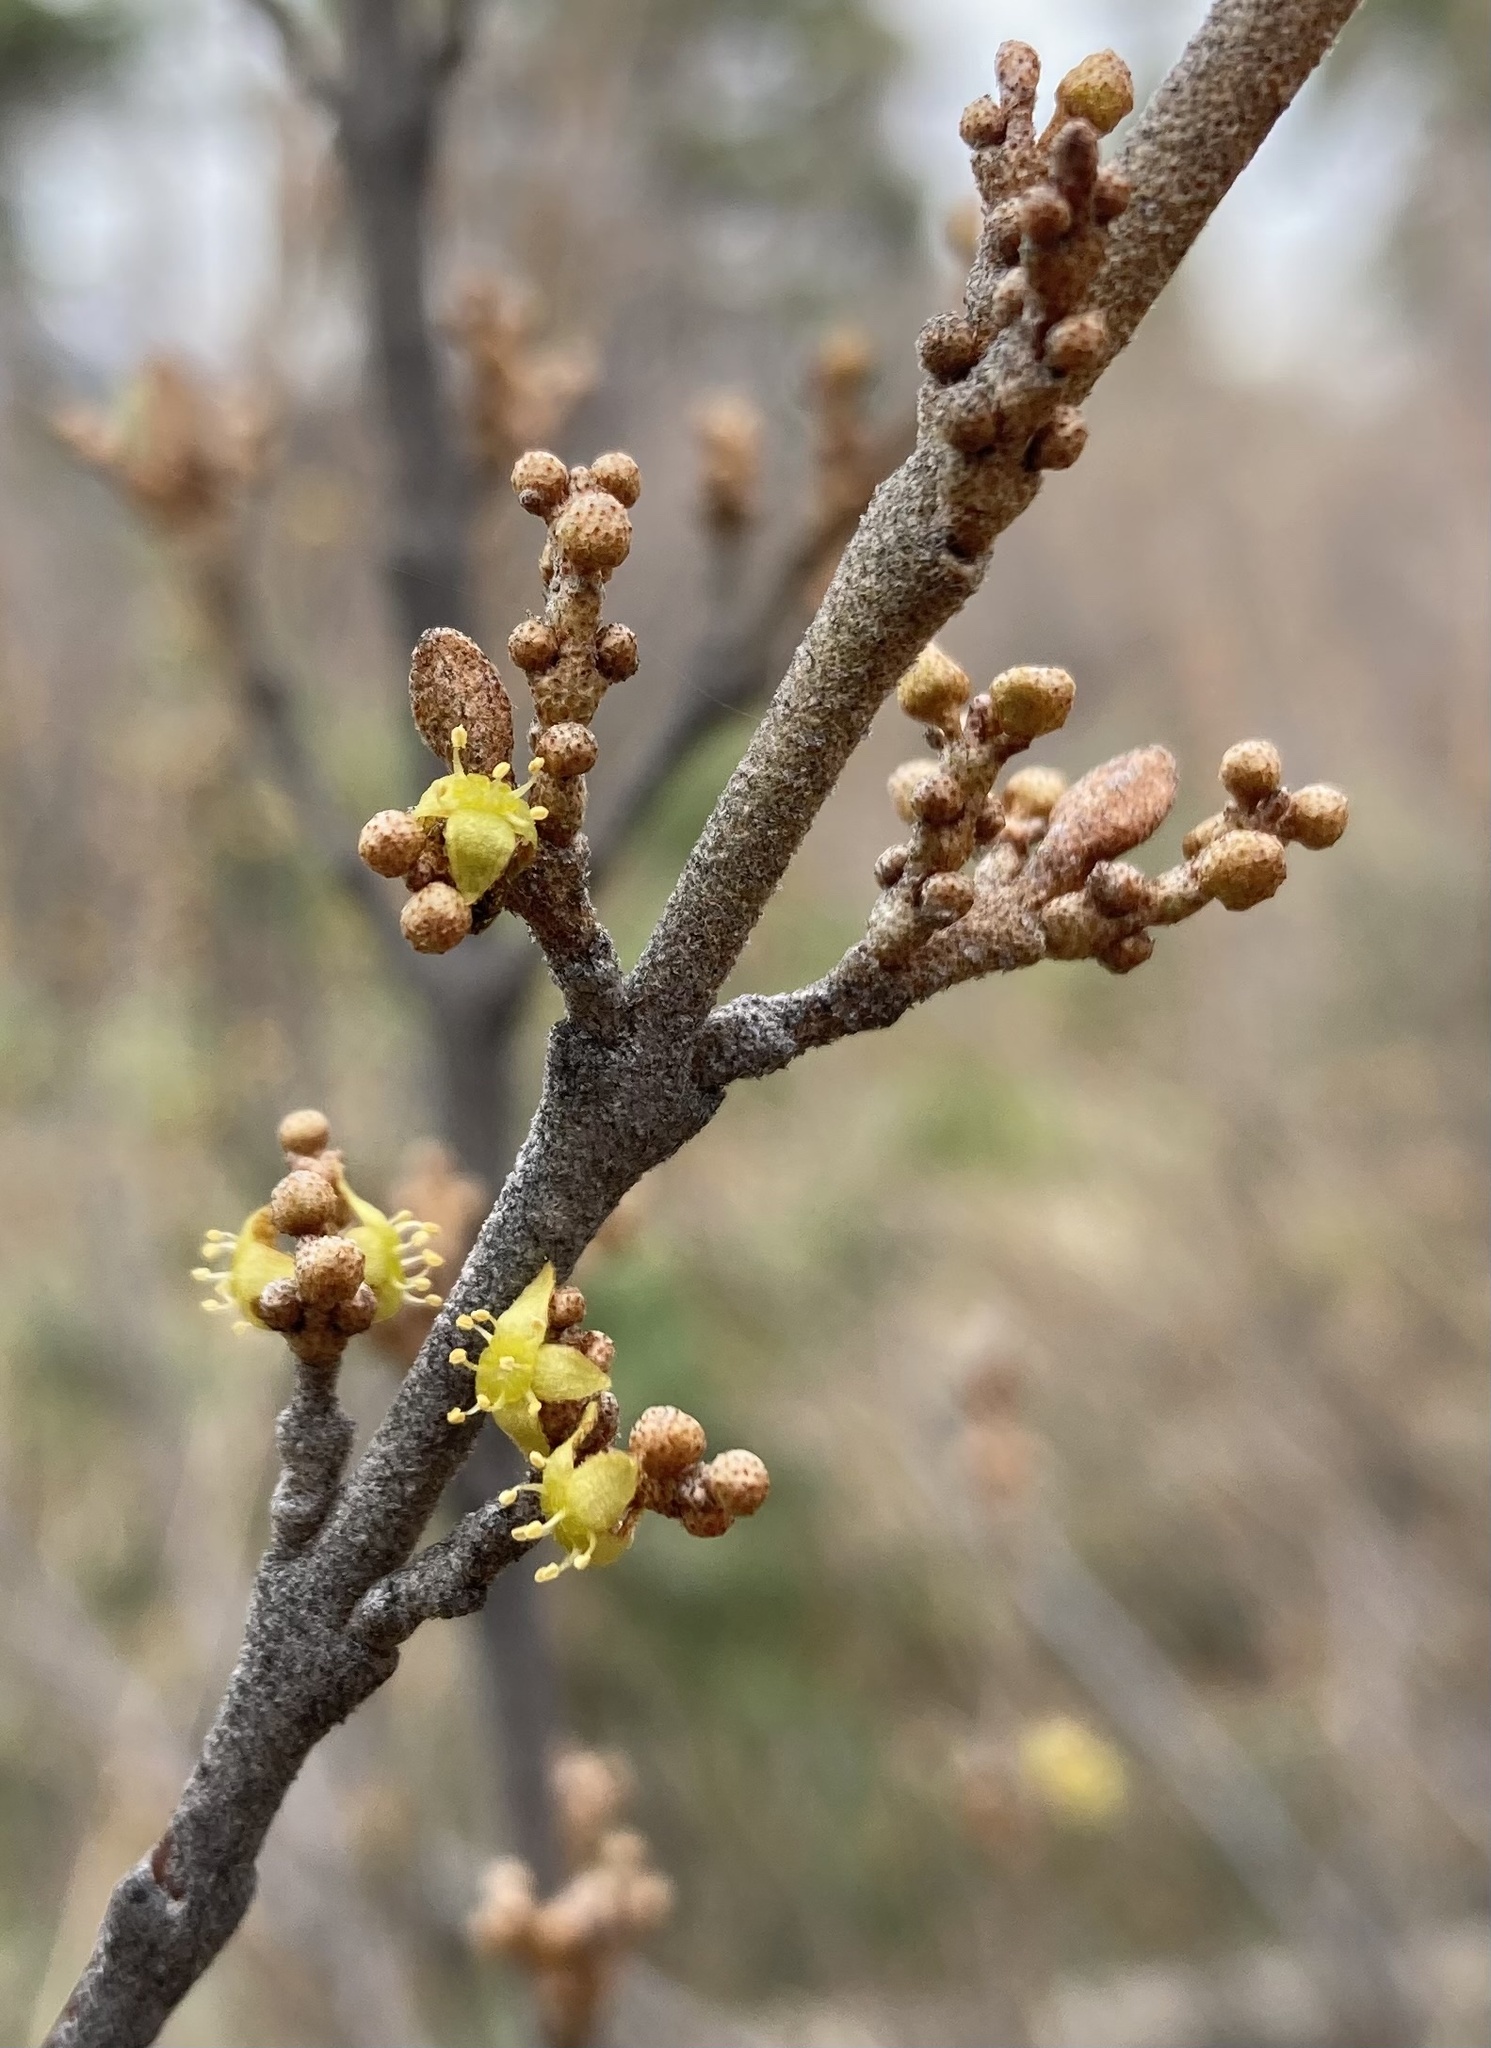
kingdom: Plantae
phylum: Tracheophyta
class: Magnoliopsida
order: Rosales
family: Elaeagnaceae
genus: Shepherdia
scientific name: Shepherdia canadensis
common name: Soapberry
